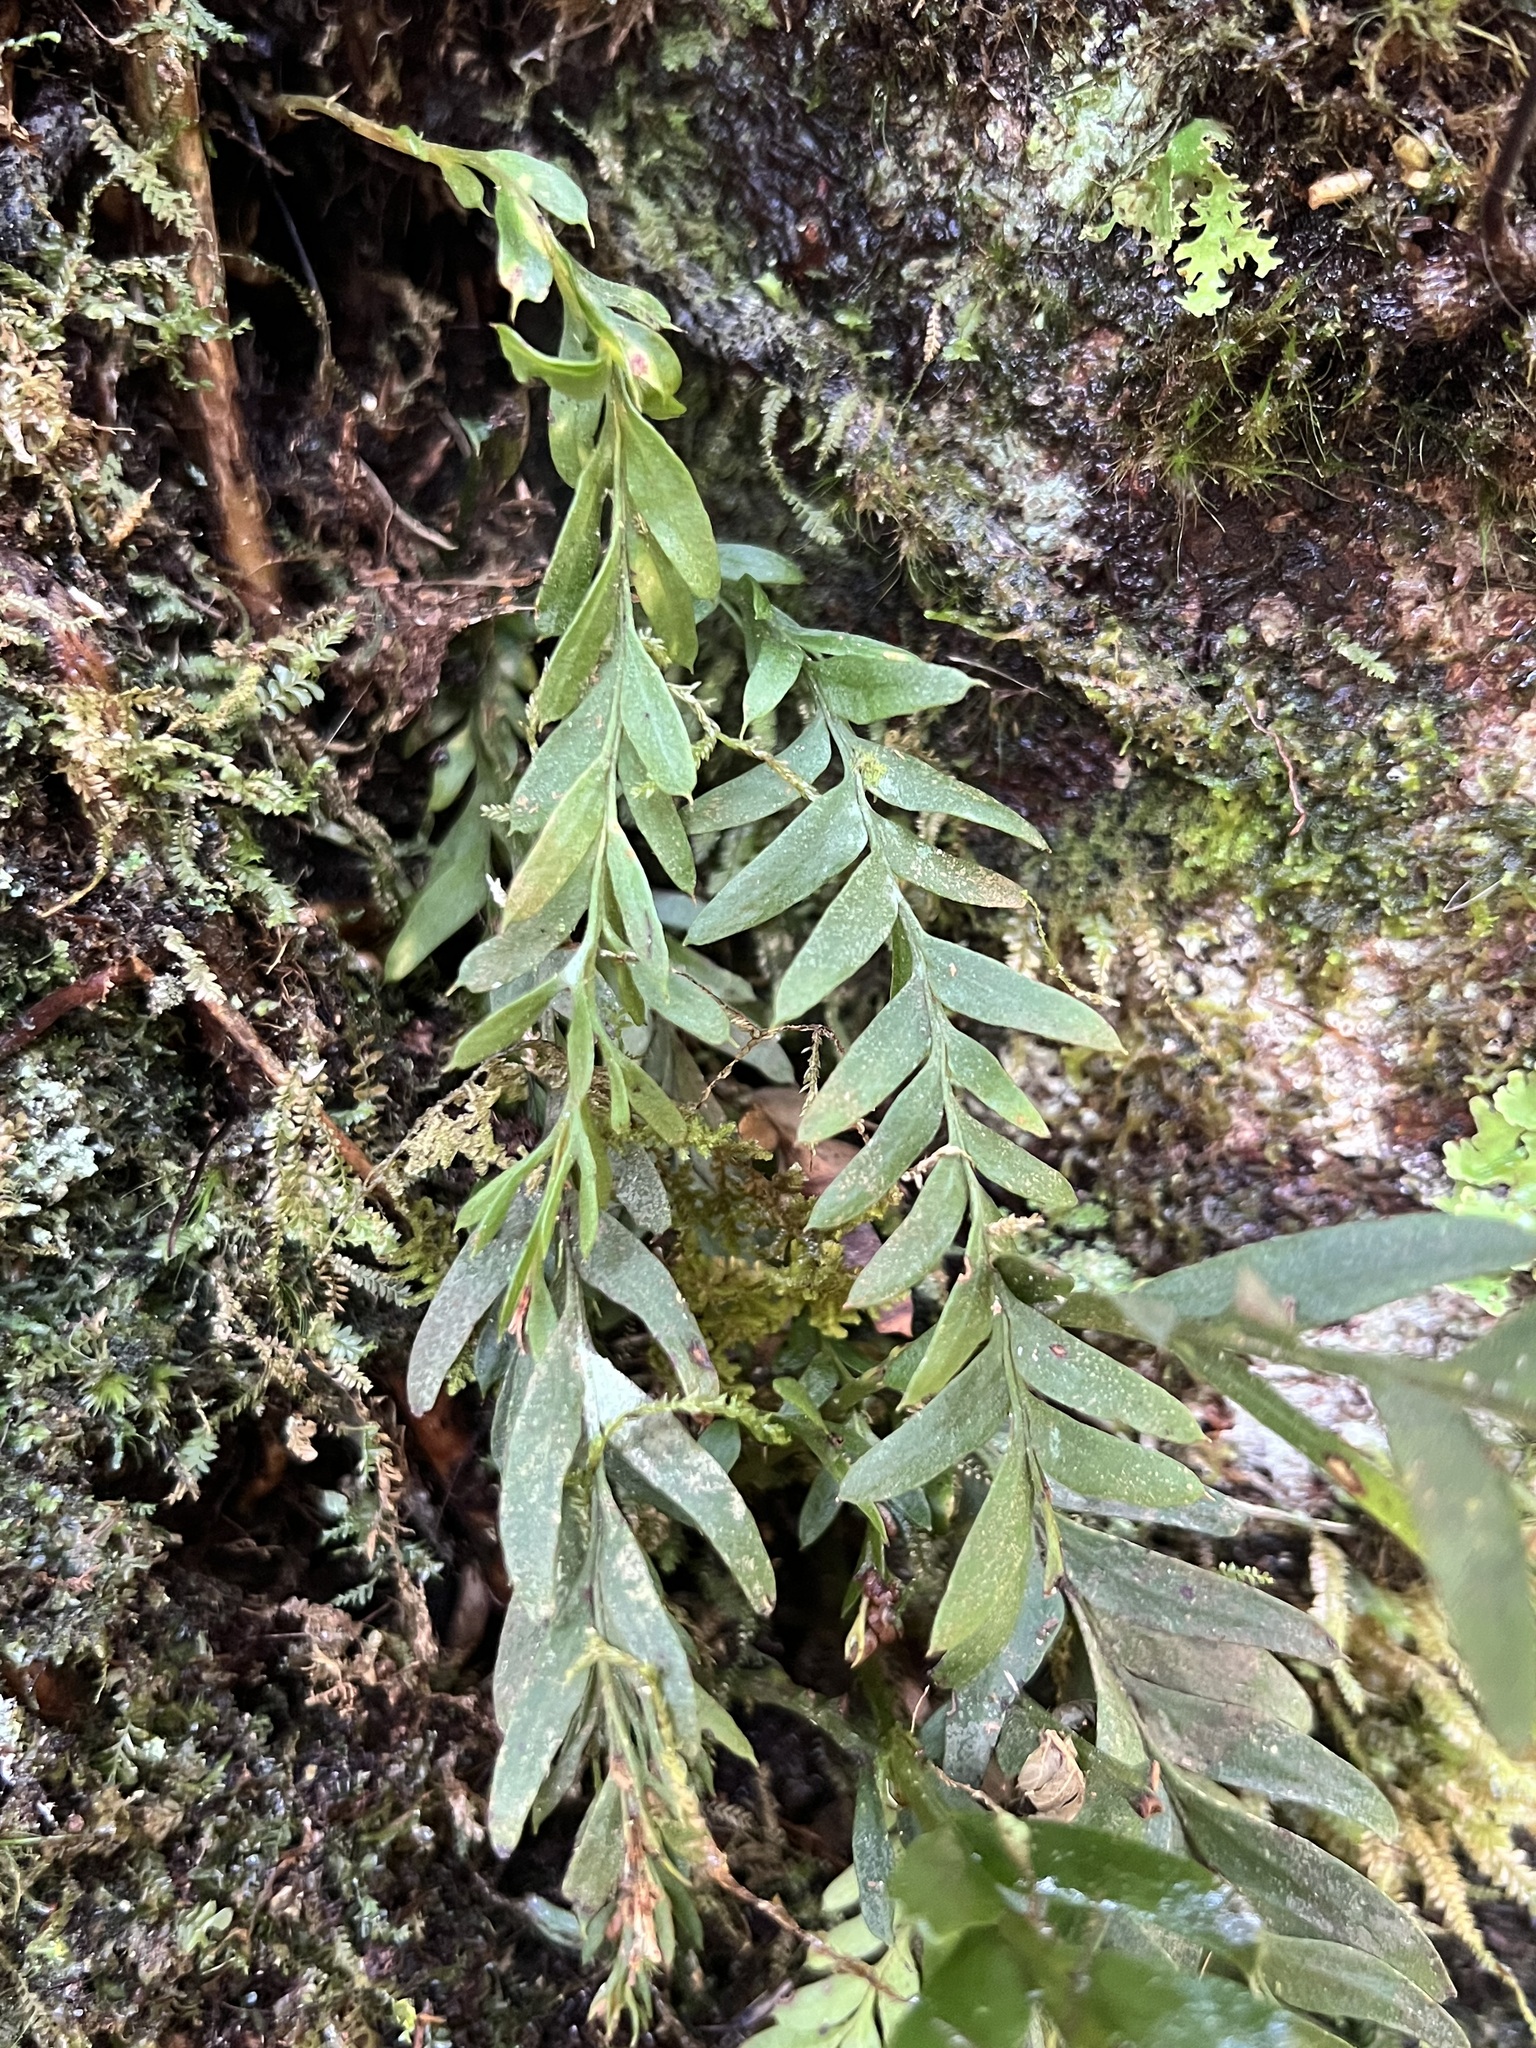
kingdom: Plantae
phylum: Tracheophyta
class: Polypodiopsida
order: Psilotales
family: Psilotaceae
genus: Tmesipteris
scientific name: Tmesipteris elongata
